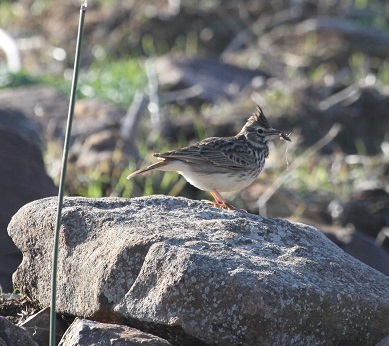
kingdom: Animalia
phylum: Chordata
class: Aves
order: Passeriformes
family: Alaudidae
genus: Galerida
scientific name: Galerida theklae
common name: Thekla lark
